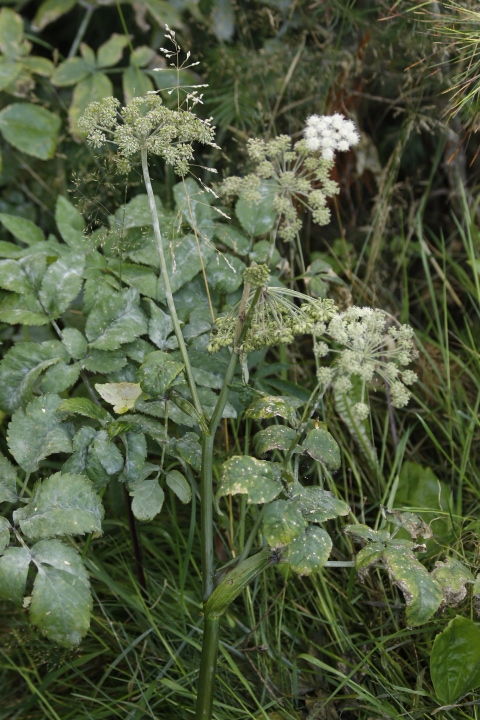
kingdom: Plantae
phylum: Tracheophyta
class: Magnoliopsida
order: Apiales
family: Apiaceae
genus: Angelica
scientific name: Angelica sylvestris
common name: Wild angelica
